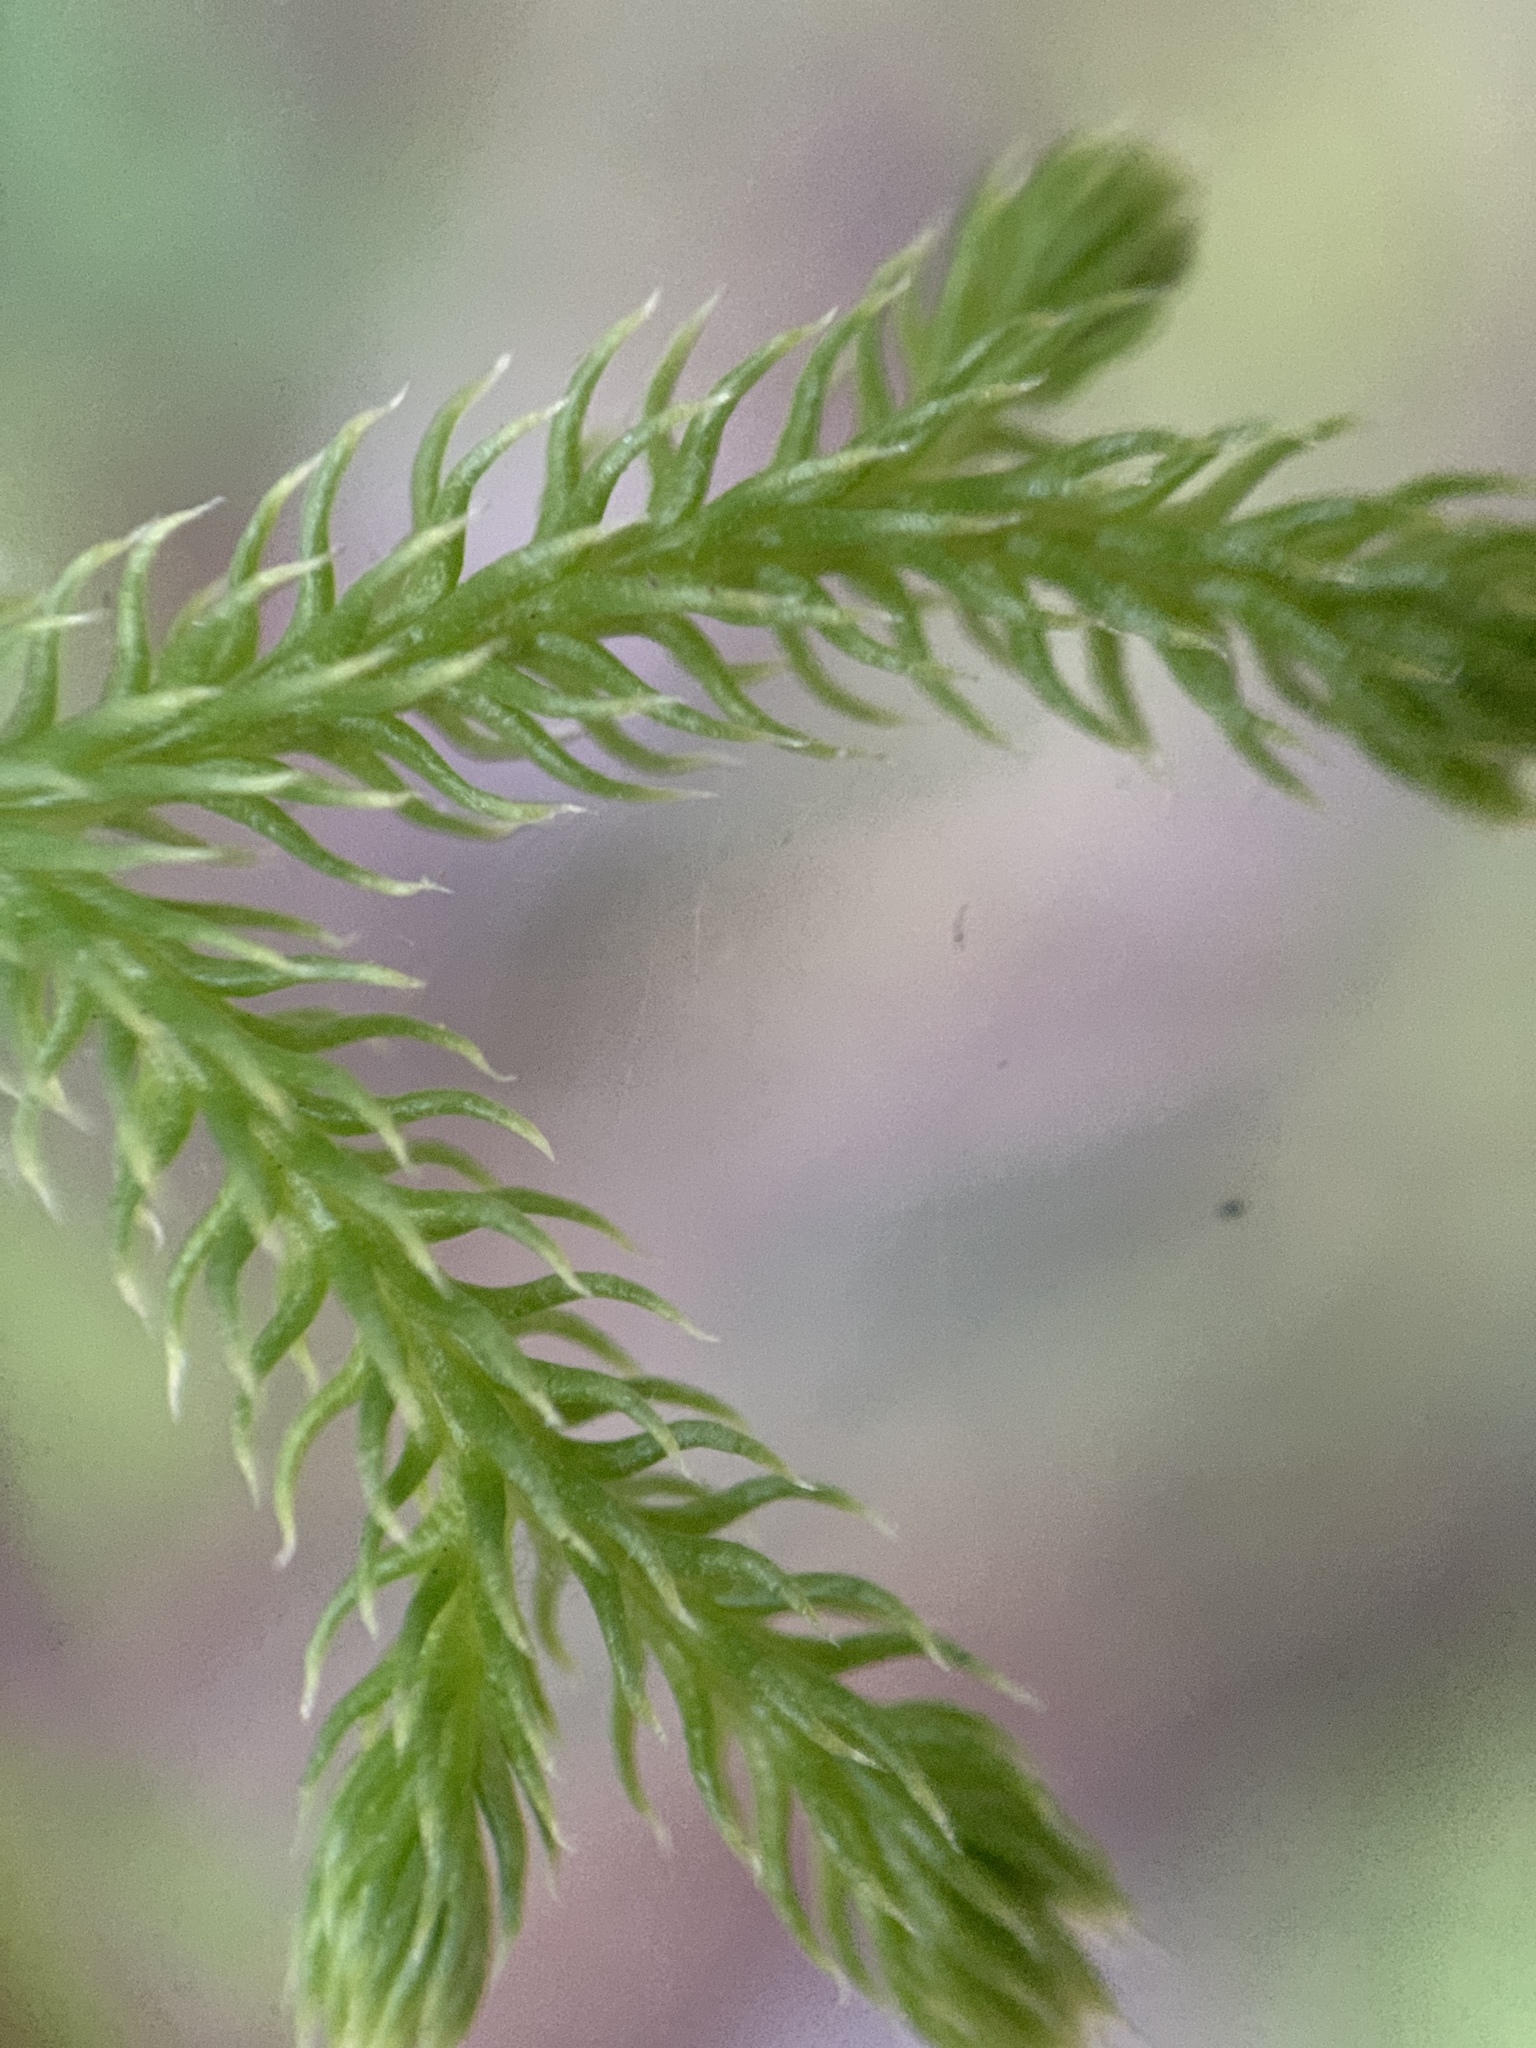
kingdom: Plantae
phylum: Tracheophyta
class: Lycopodiopsida
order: Lycopodiales
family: Lycopodiaceae
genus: Palhinhaea
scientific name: Palhinhaea cernua
